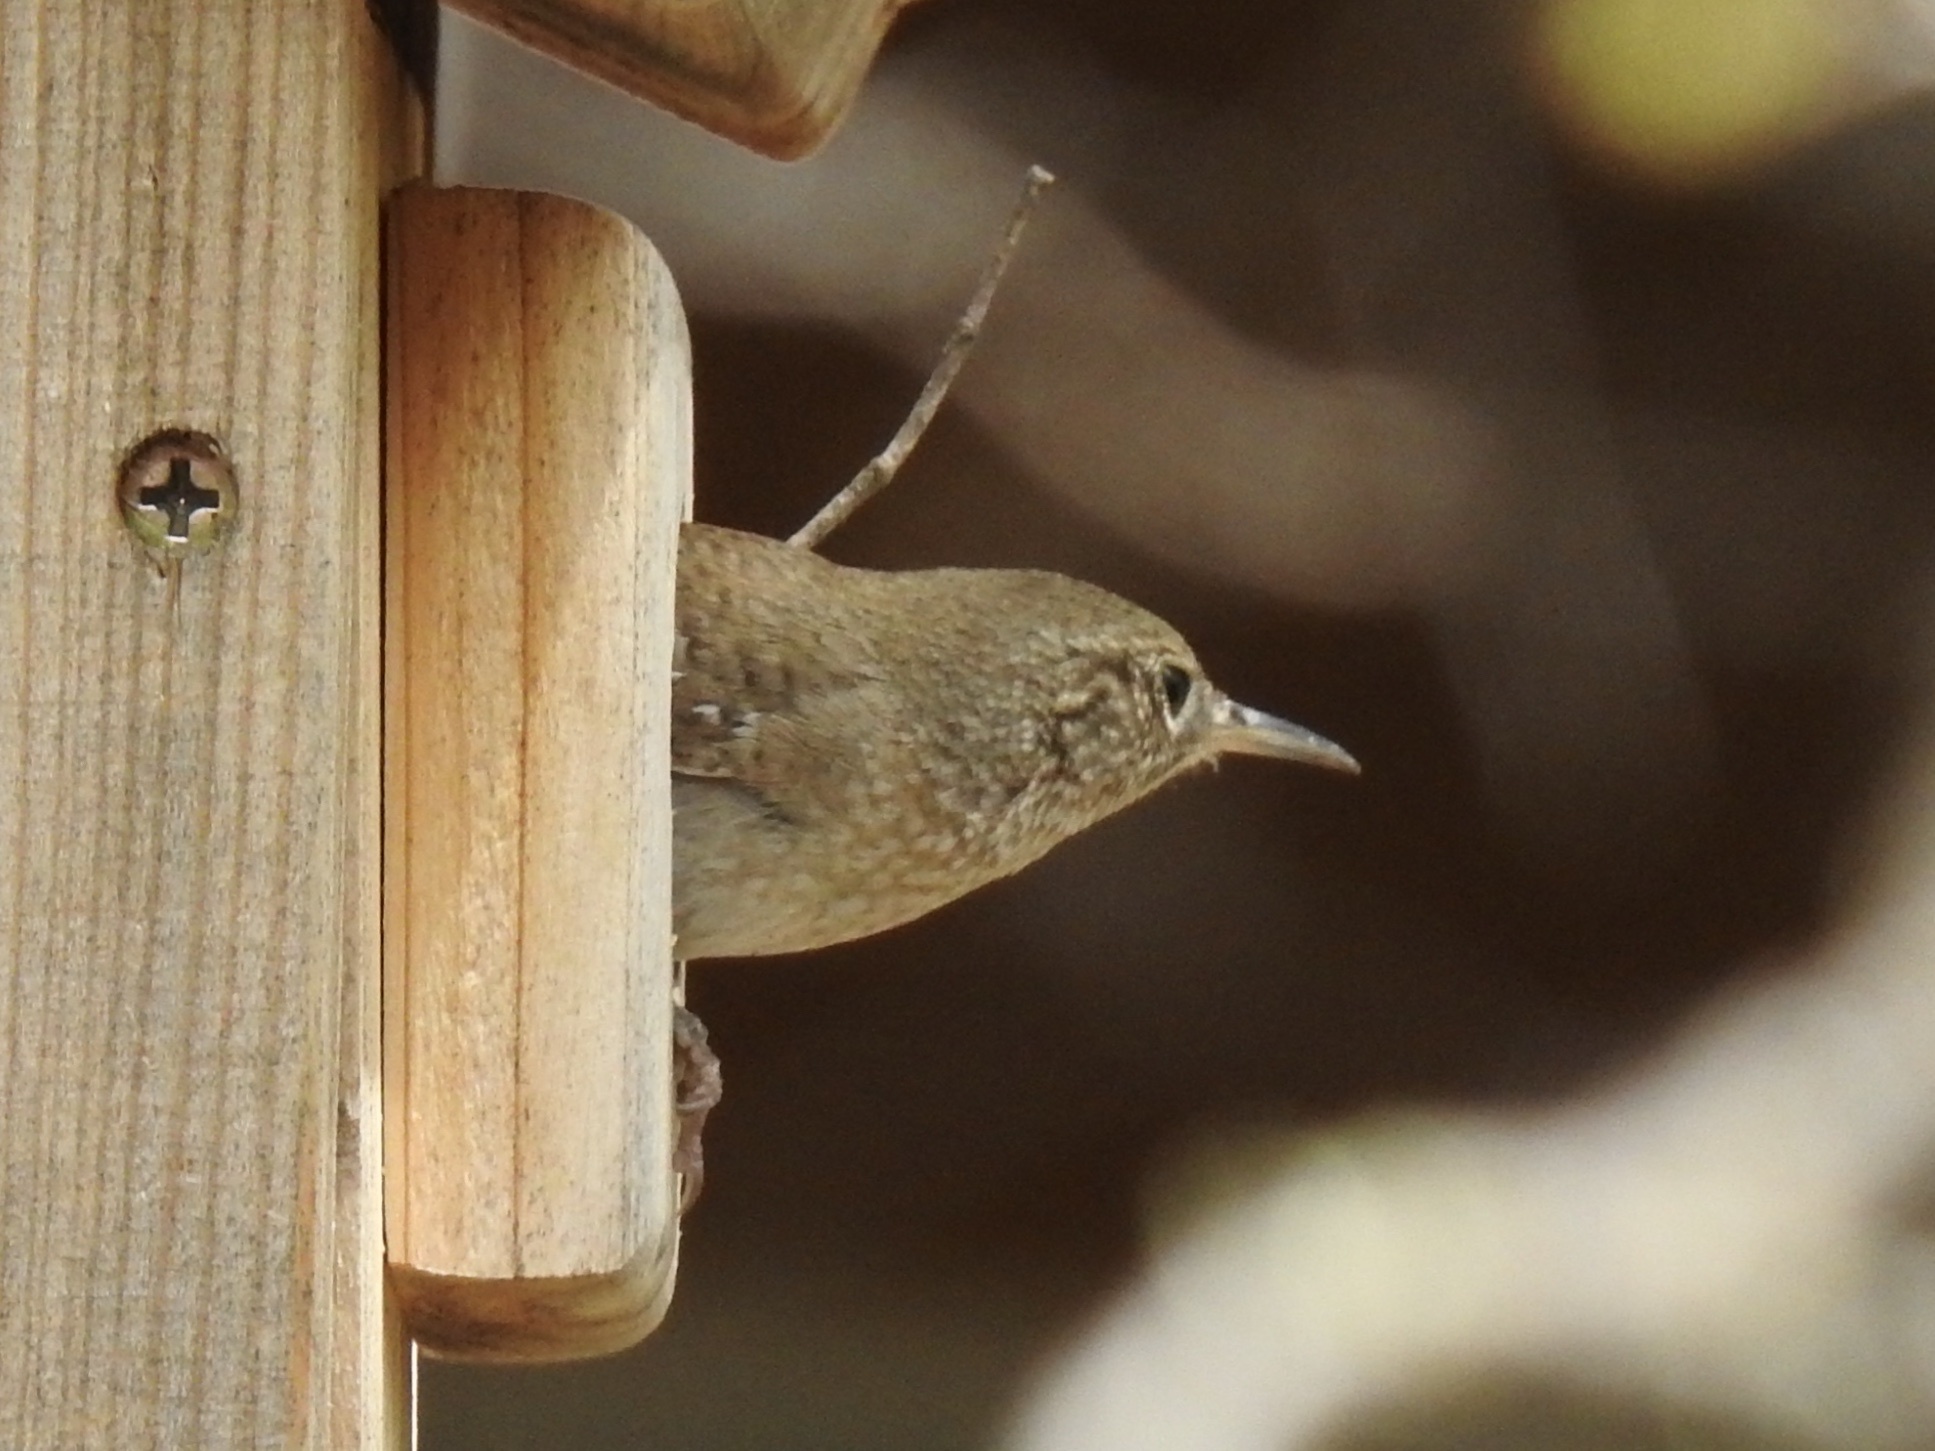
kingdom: Animalia
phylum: Chordata
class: Aves
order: Passeriformes
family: Troglodytidae
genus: Troglodytes
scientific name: Troglodytes aedon
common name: House wren
